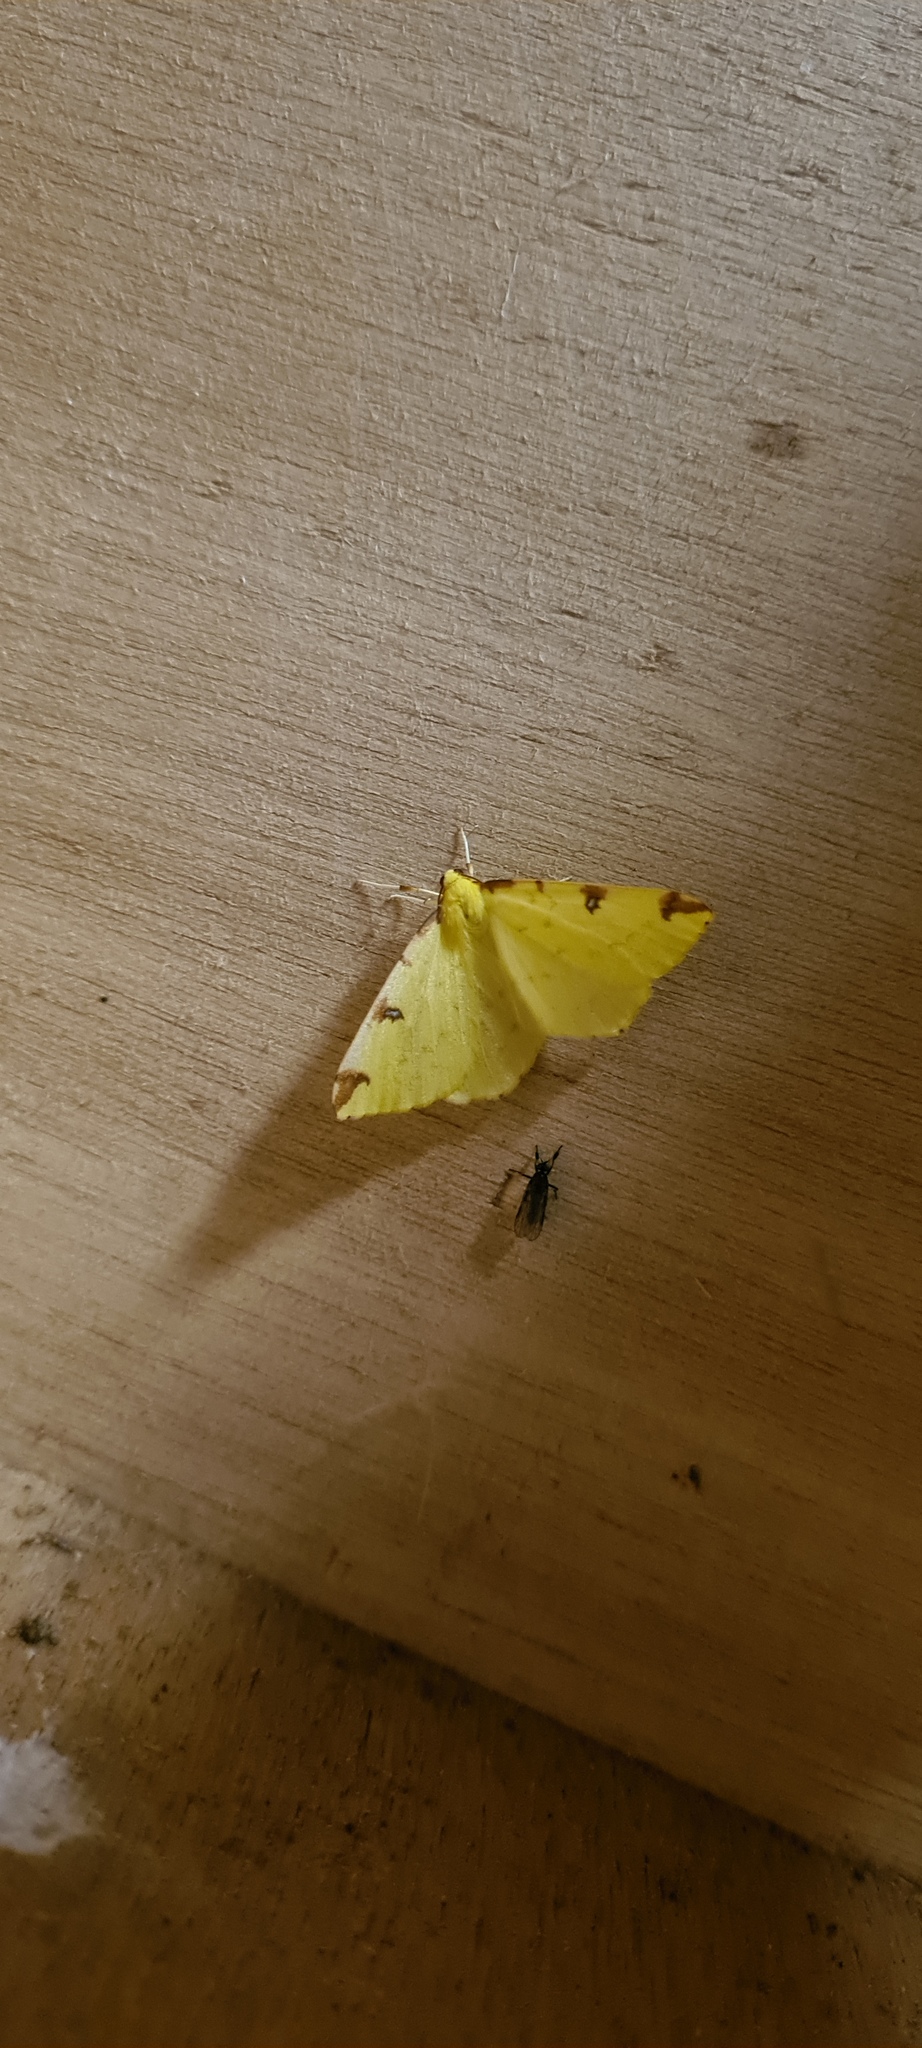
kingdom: Animalia
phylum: Arthropoda
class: Insecta
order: Lepidoptera
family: Geometridae
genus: Opisthograptis
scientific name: Opisthograptis luteolata
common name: Brimstone moth
